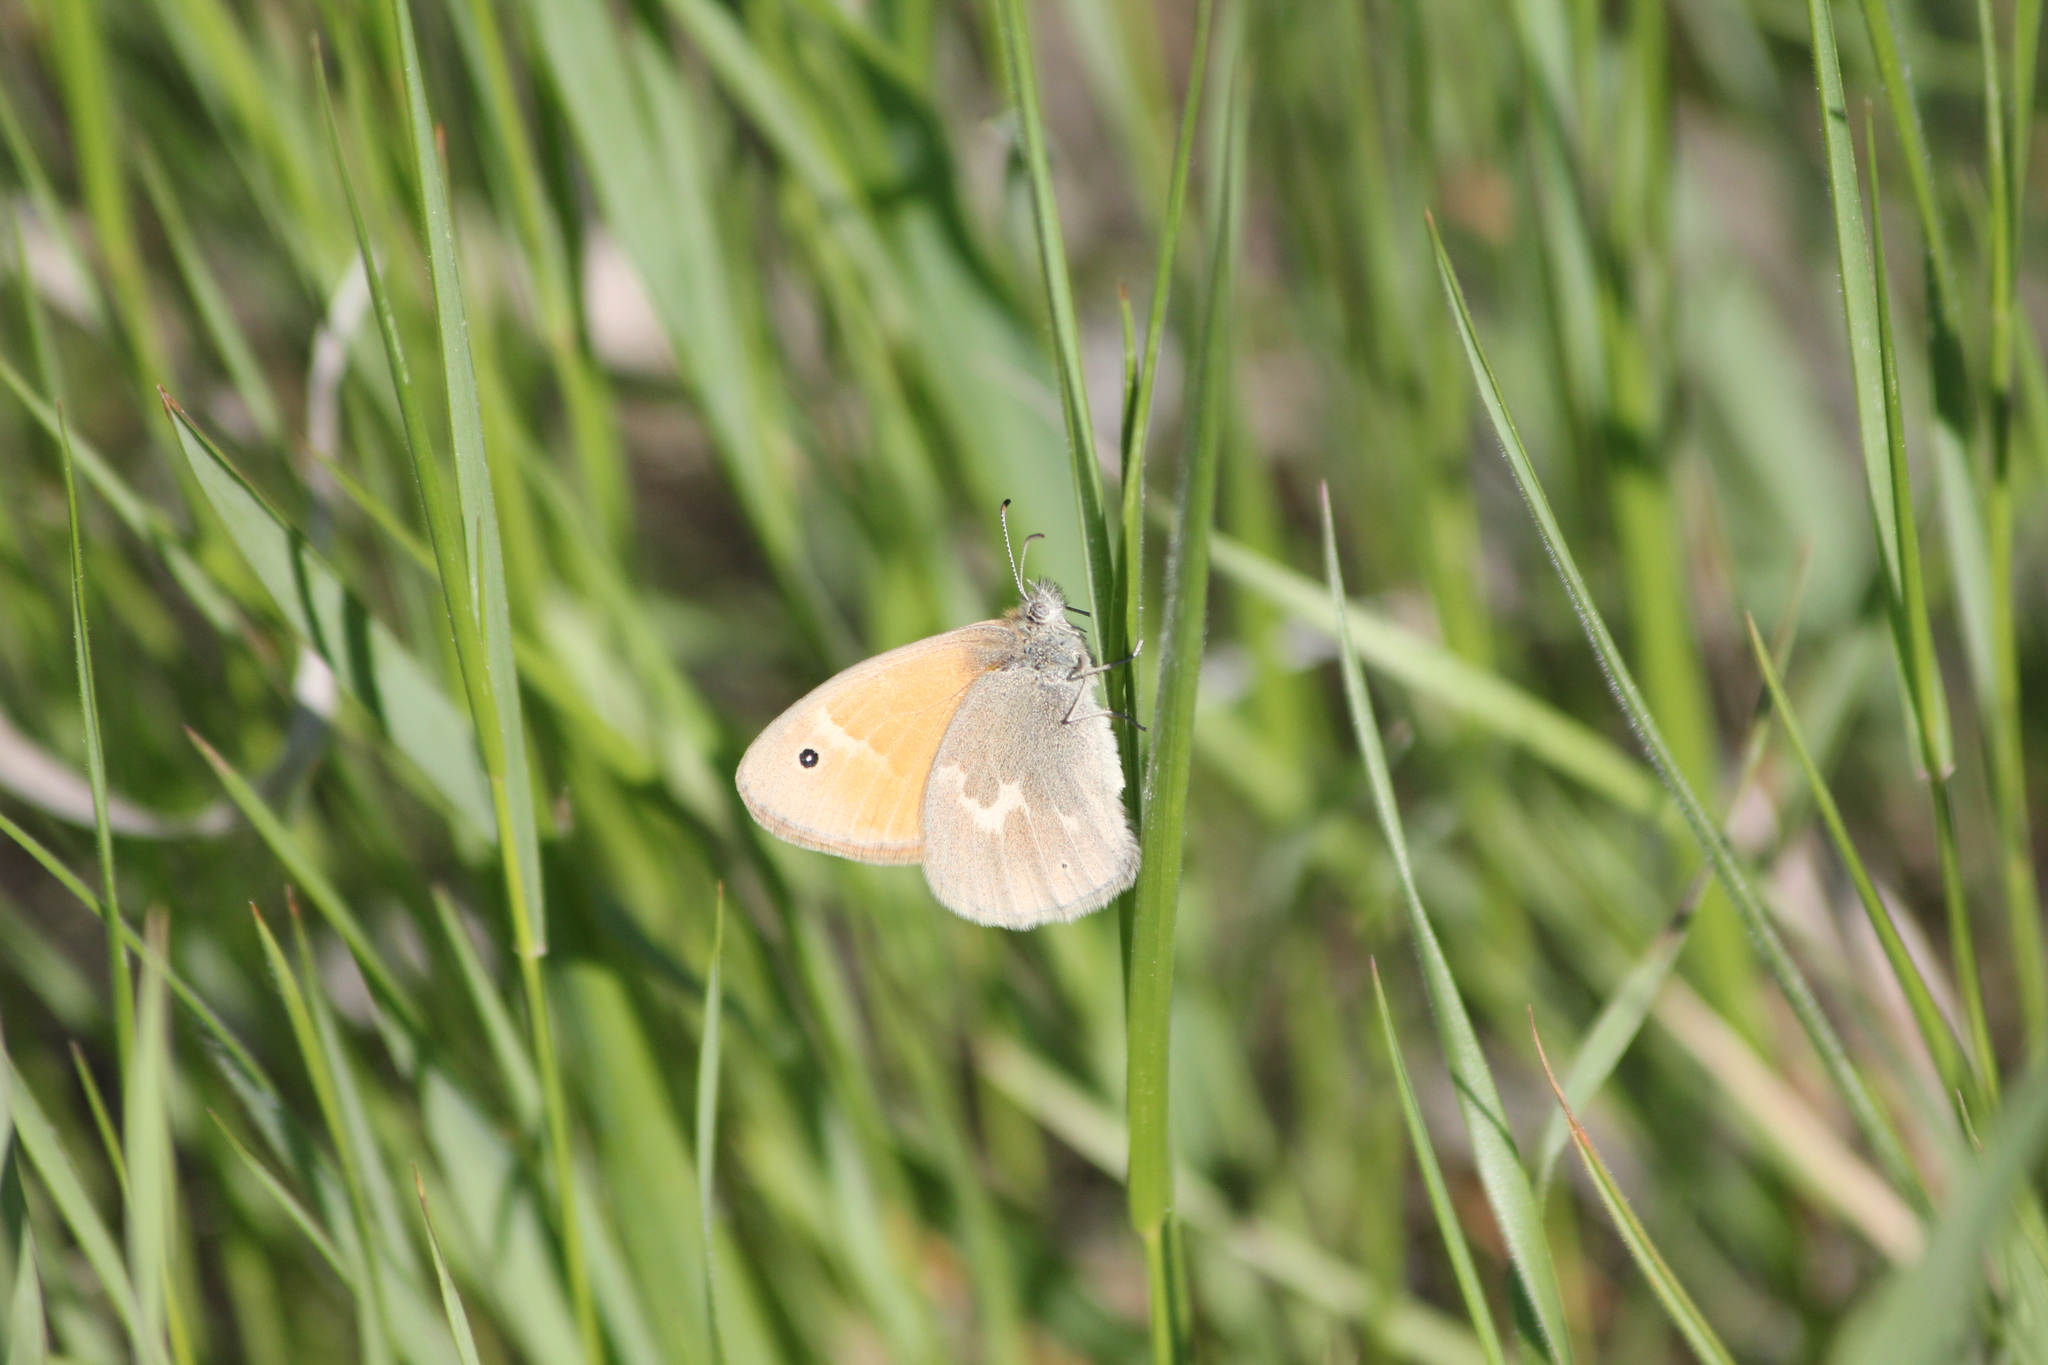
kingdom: Animalia
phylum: Arthropoda
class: Insecta
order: Lepidoptera
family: Nymphalidae
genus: Coenonympha
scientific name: Coenonympha california
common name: Common ringlet
